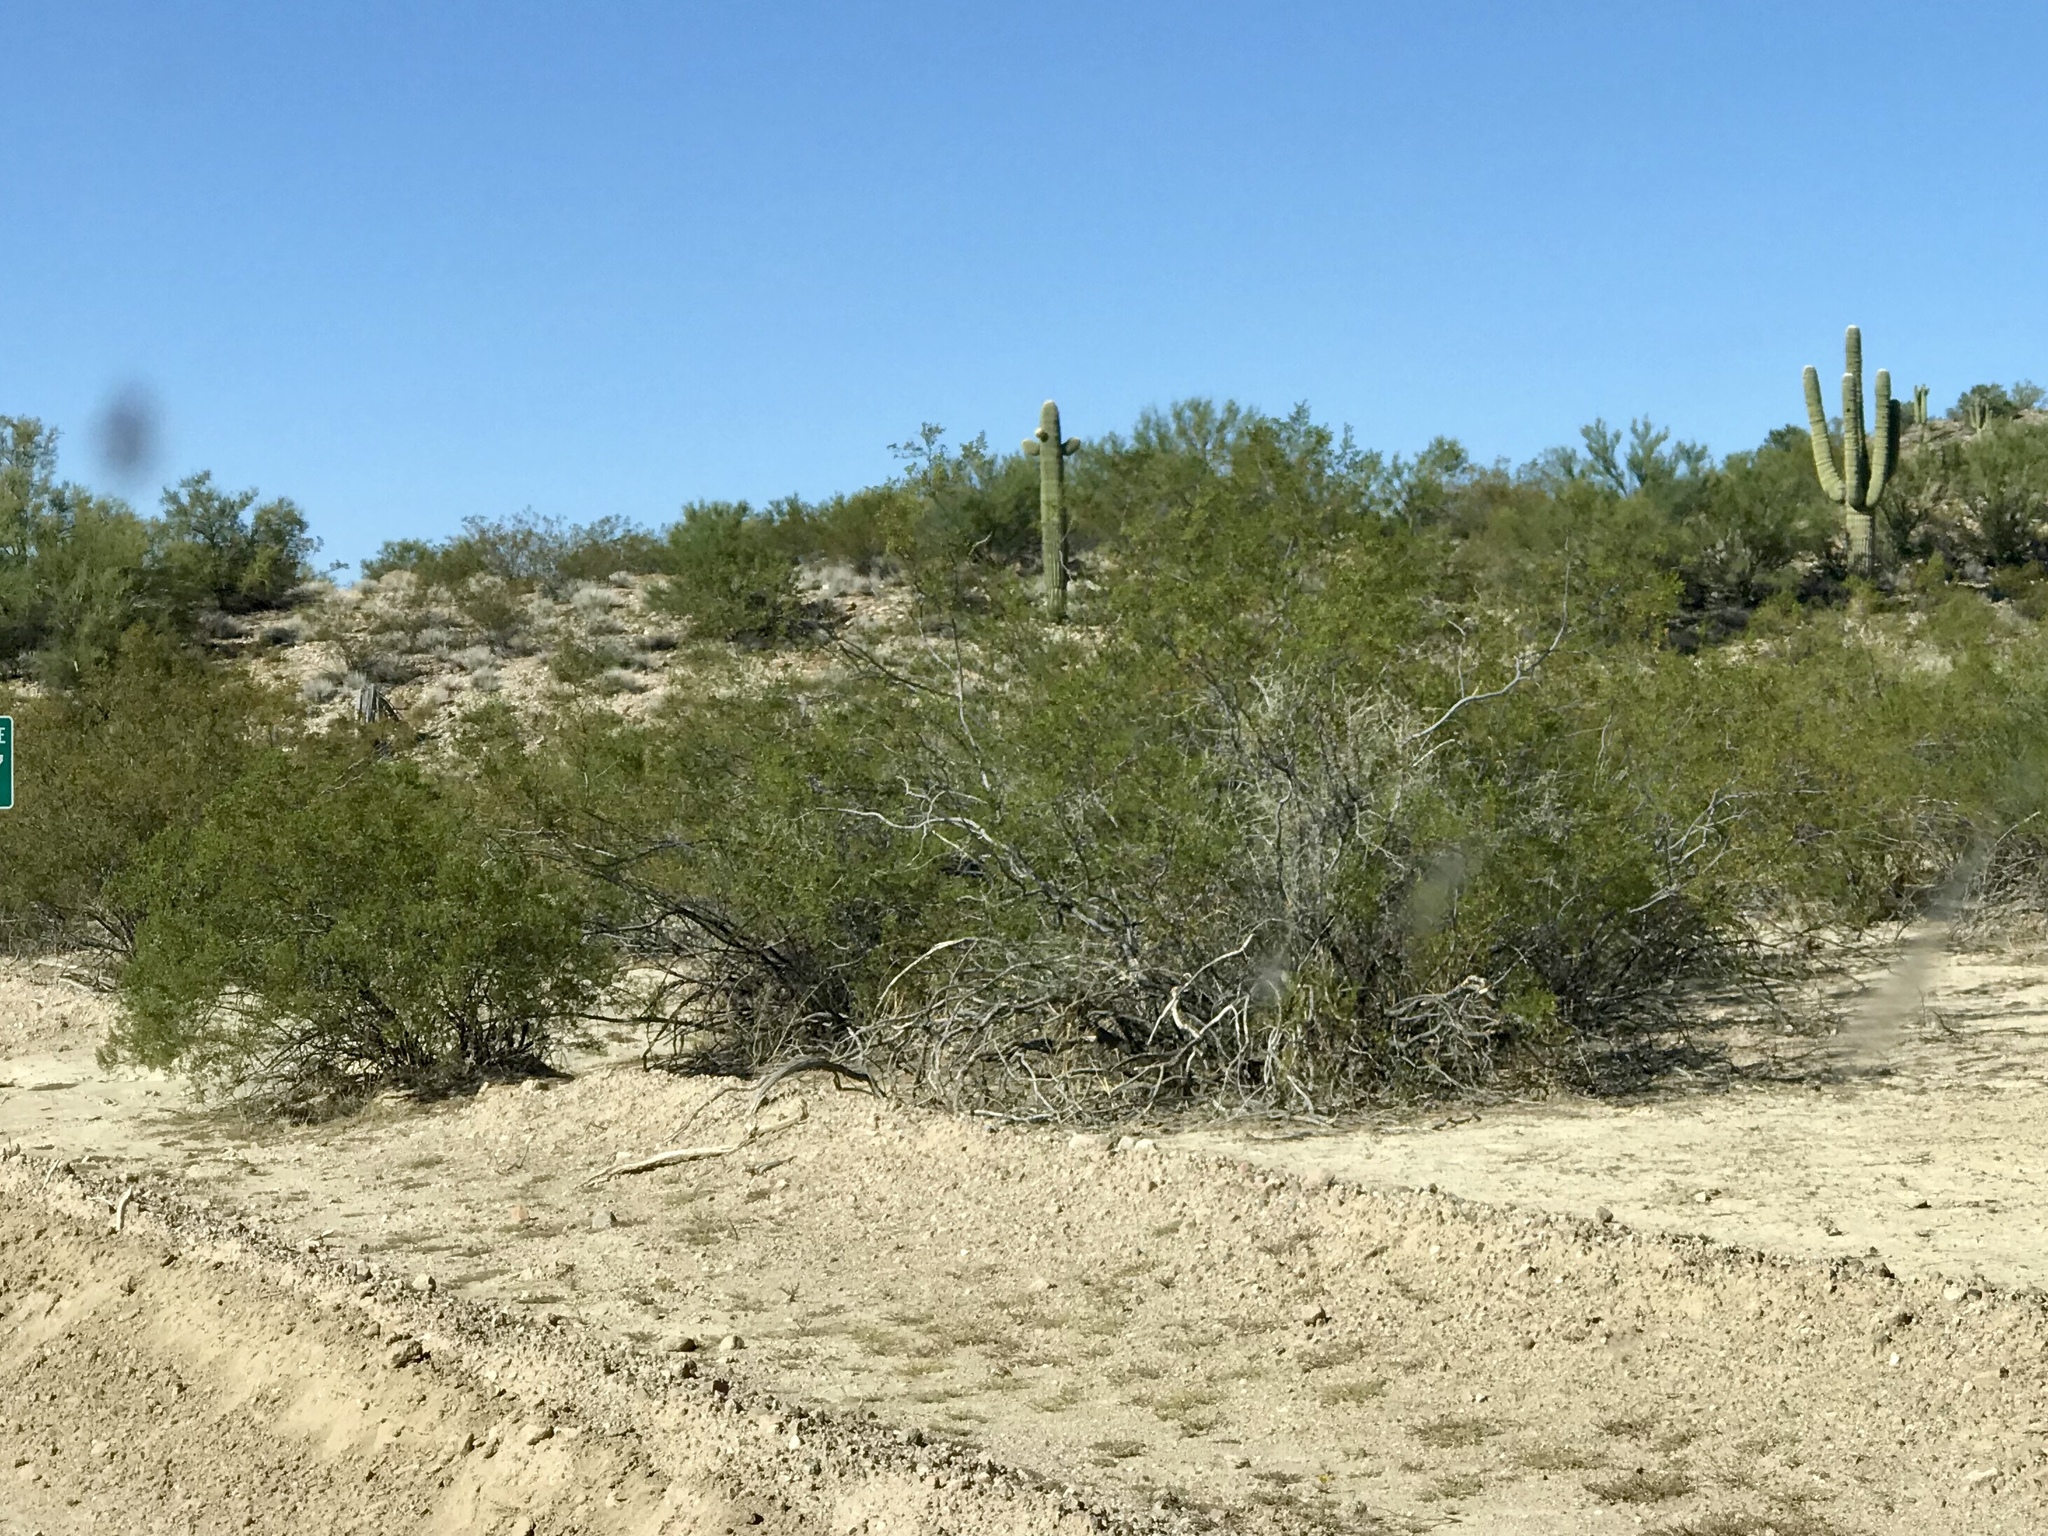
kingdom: Plantae
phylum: Tracheophyta
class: Magnoliopsida
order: Zygophyllales
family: Zygophyllaceae
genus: Larrea
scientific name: Larrea tridentata
